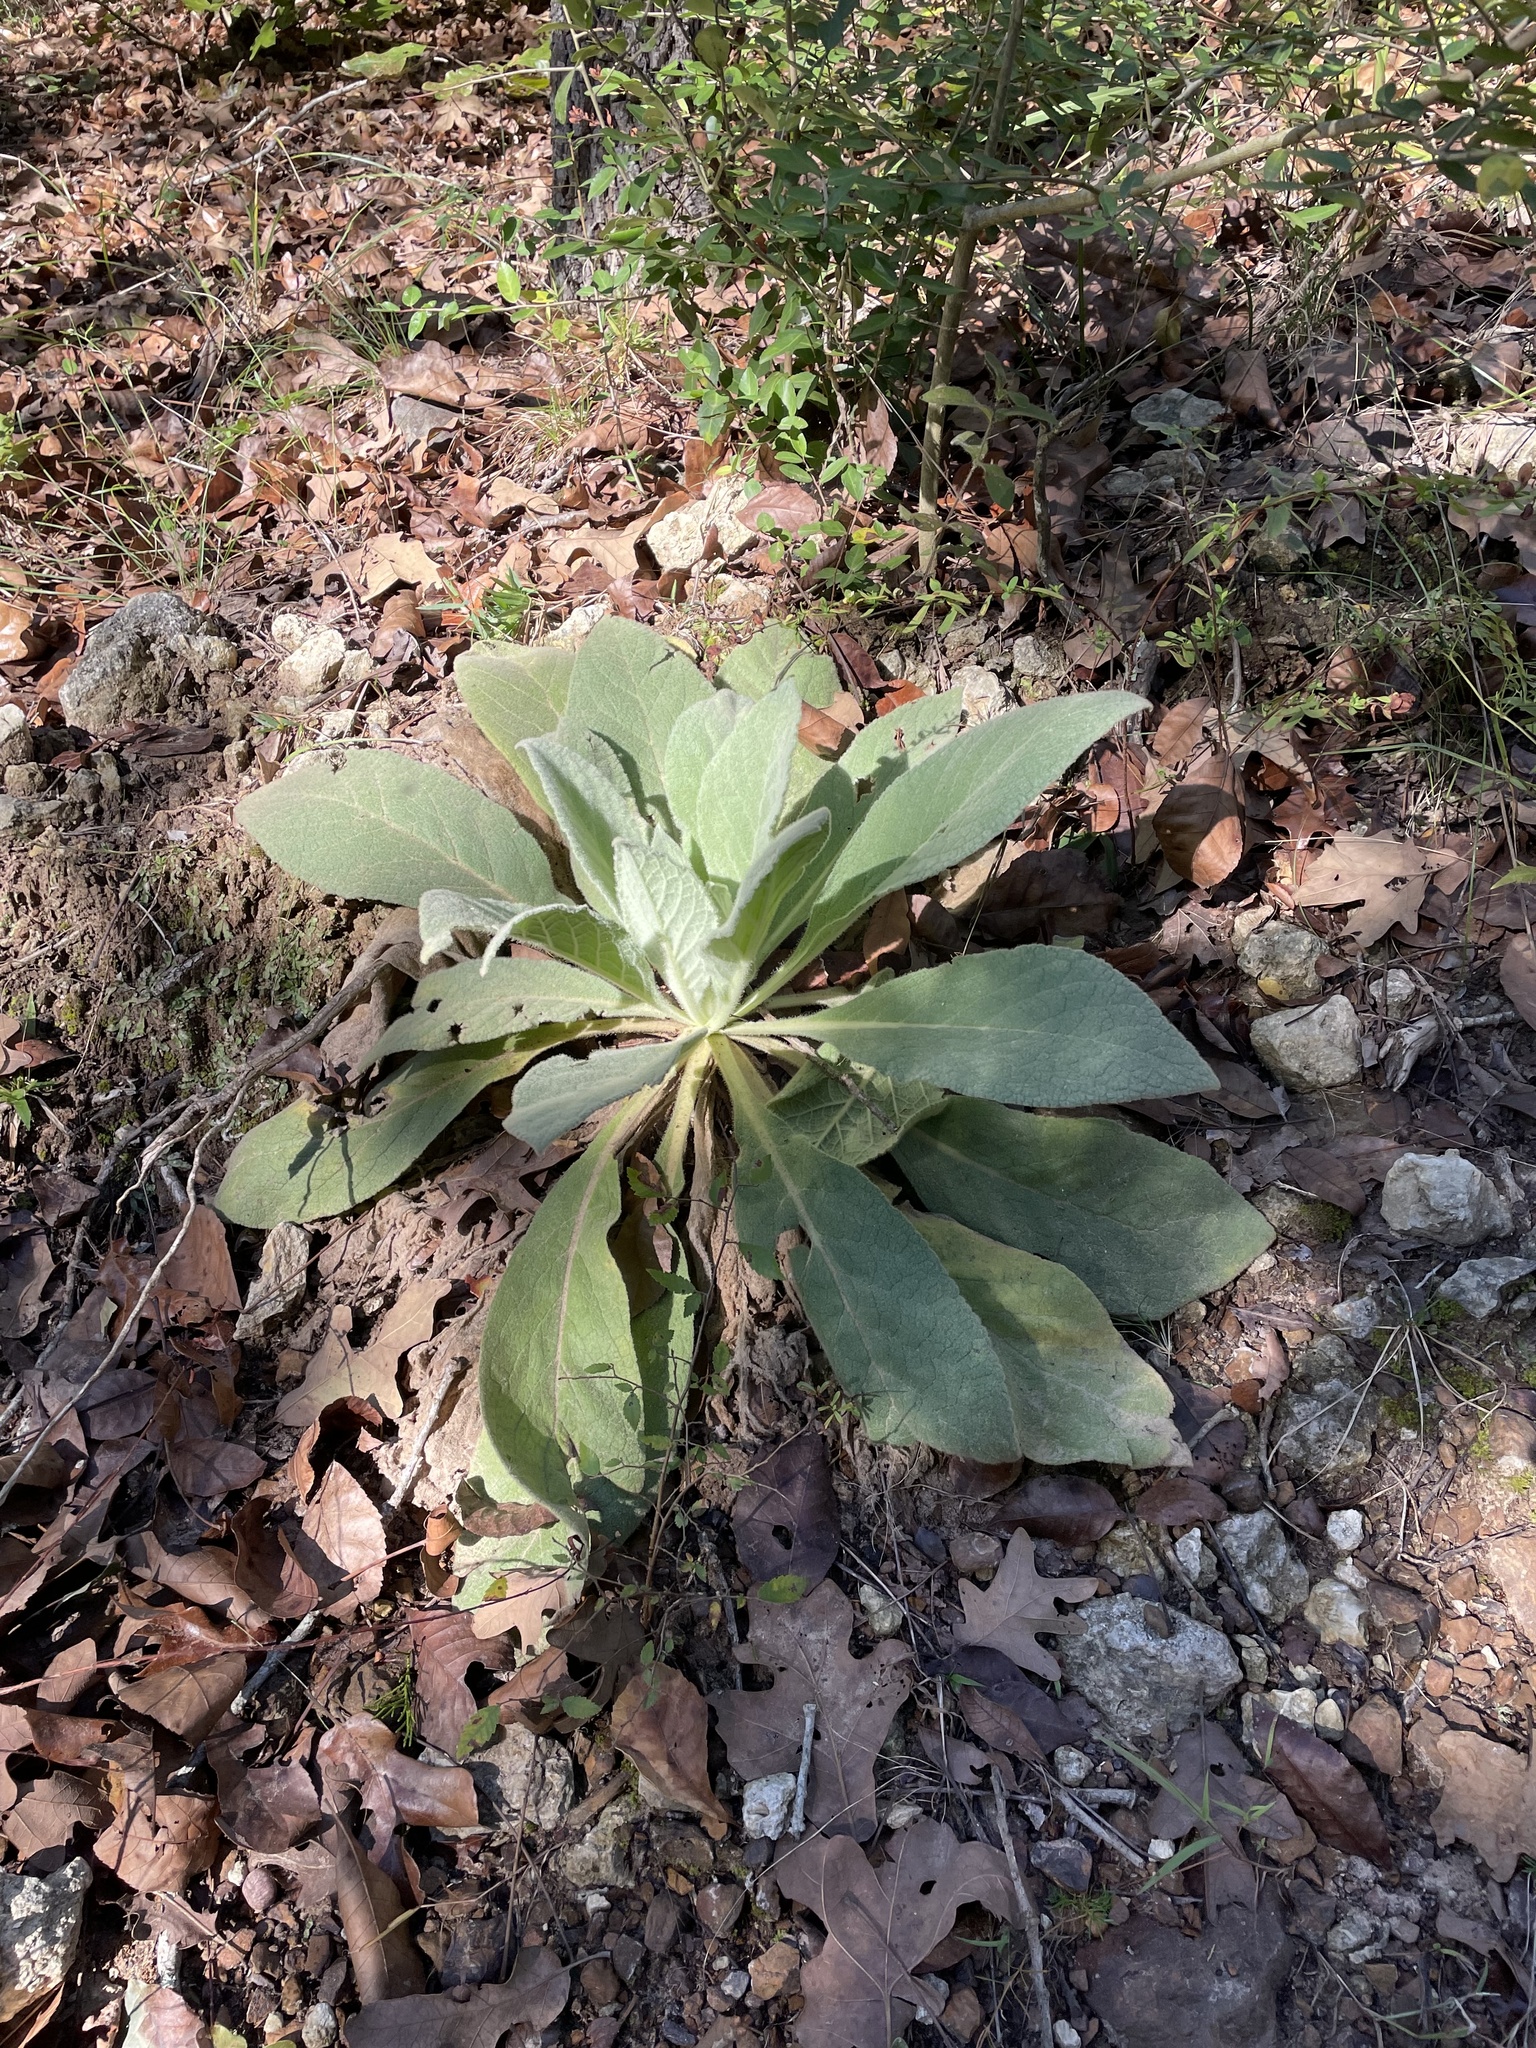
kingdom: Plantae
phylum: Tracheophyta
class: Magnoliopsida
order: Lamiales
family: Scrophulariaceae
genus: Verbascum
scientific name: Verbascum thapsus
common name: Common mullein
